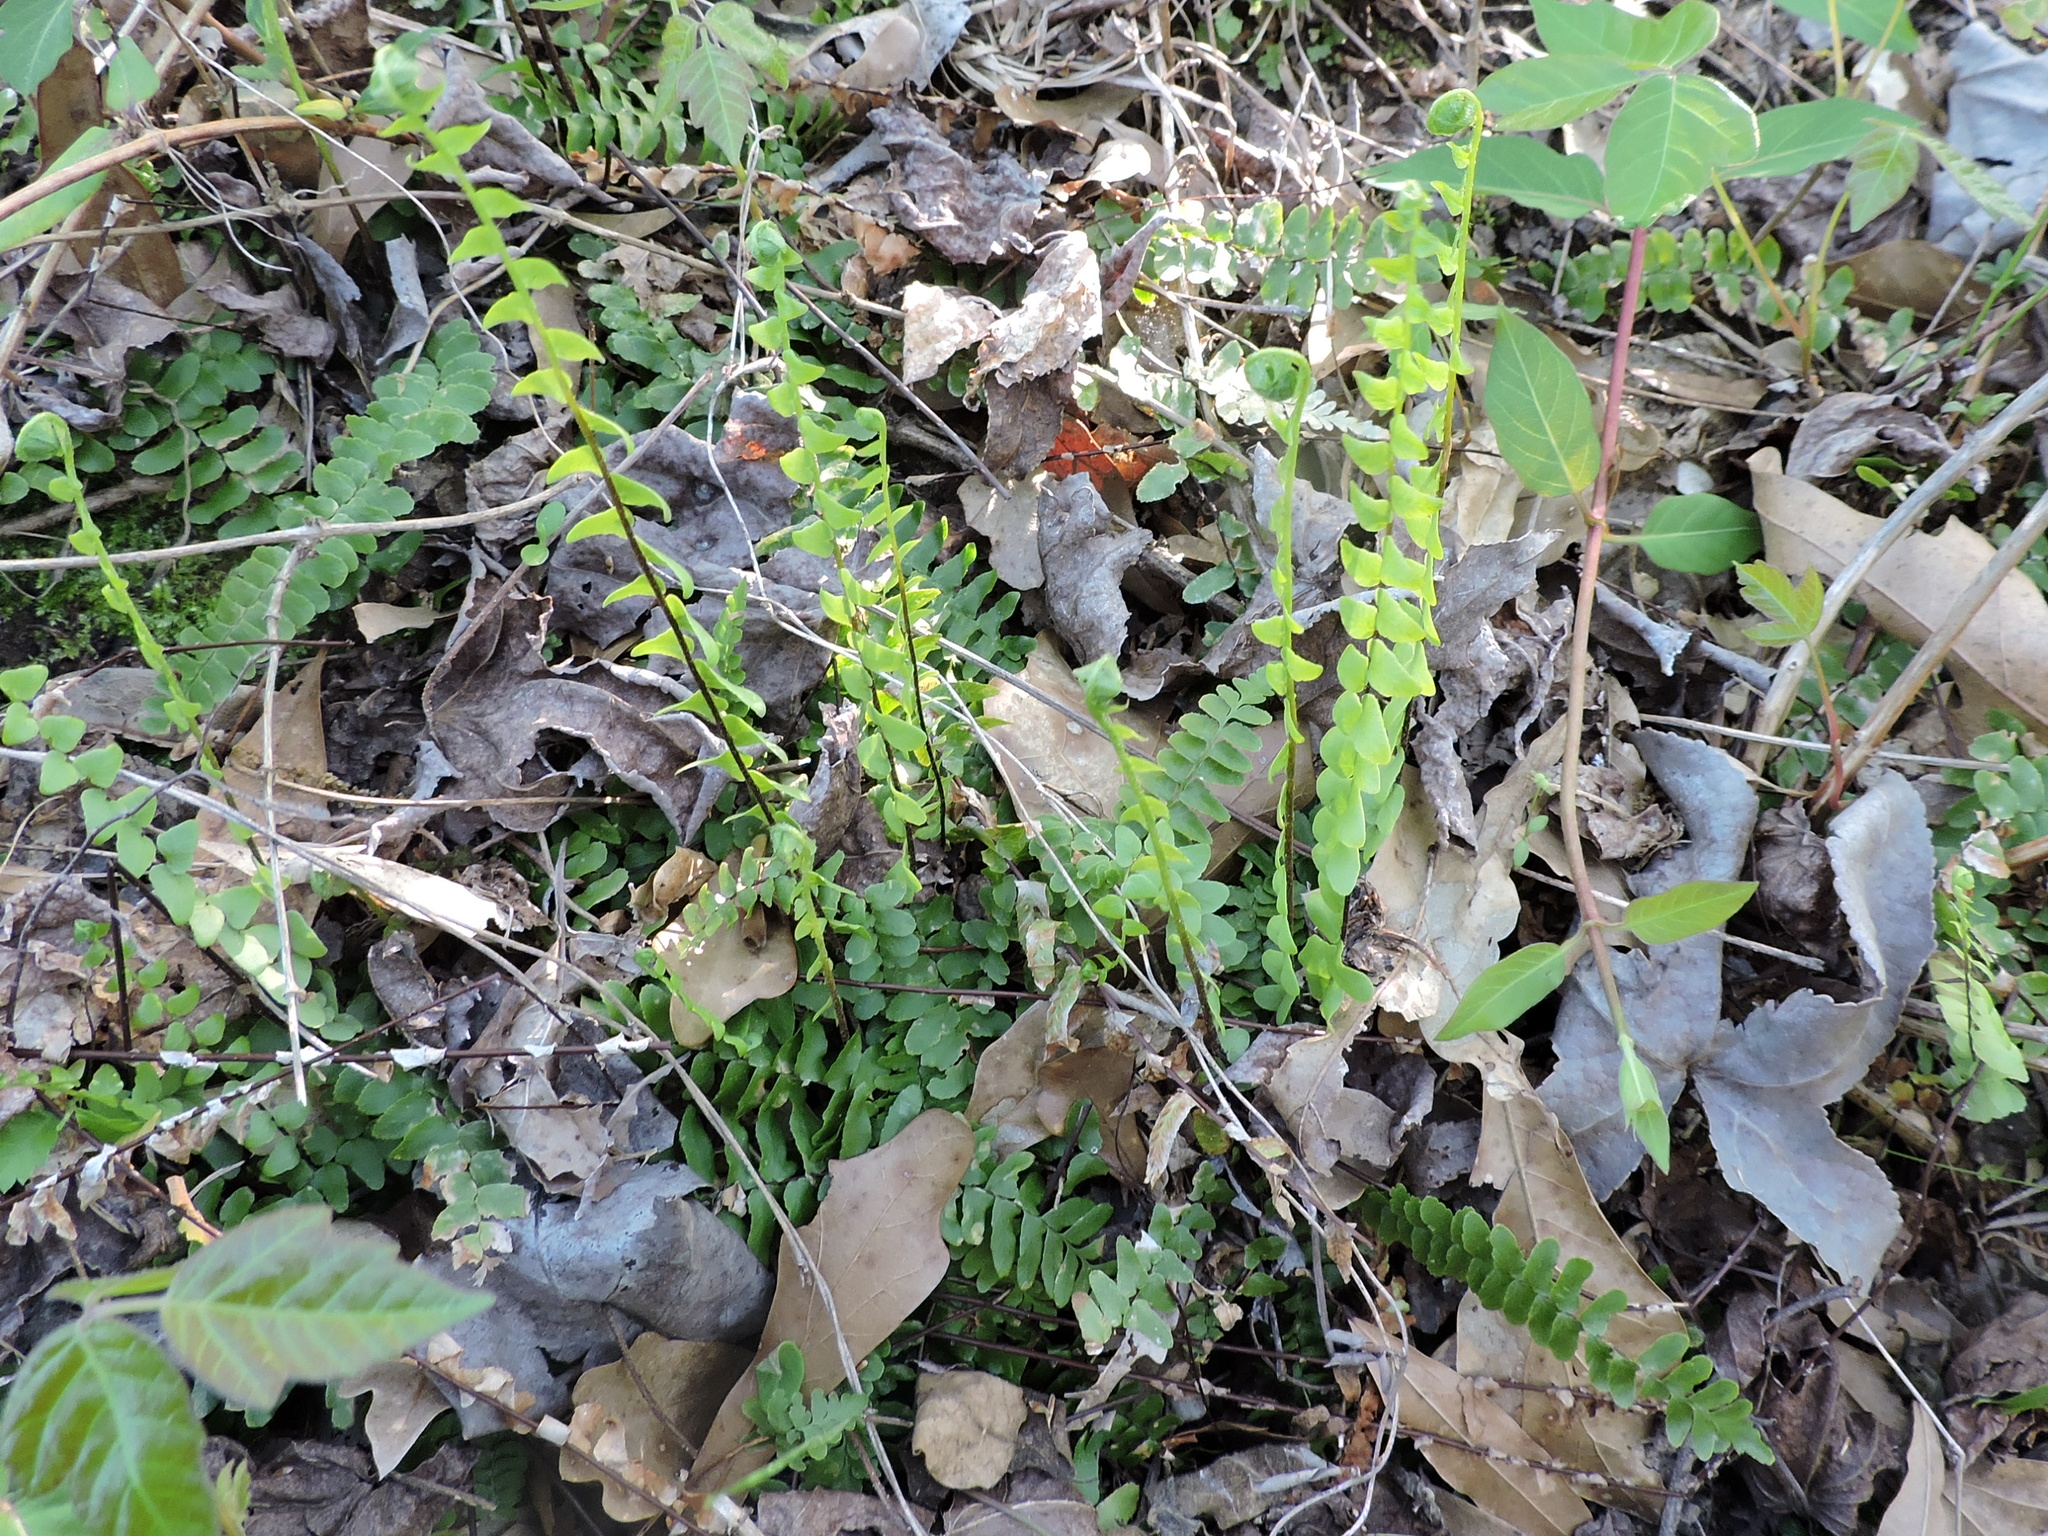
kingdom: Plantae
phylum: Tracheophyta
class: Polypodiopsida
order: Polypodiales
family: Aspleniaceae
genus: Asplenium
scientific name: Asplenium platyneuron
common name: Ebony spleenwort
